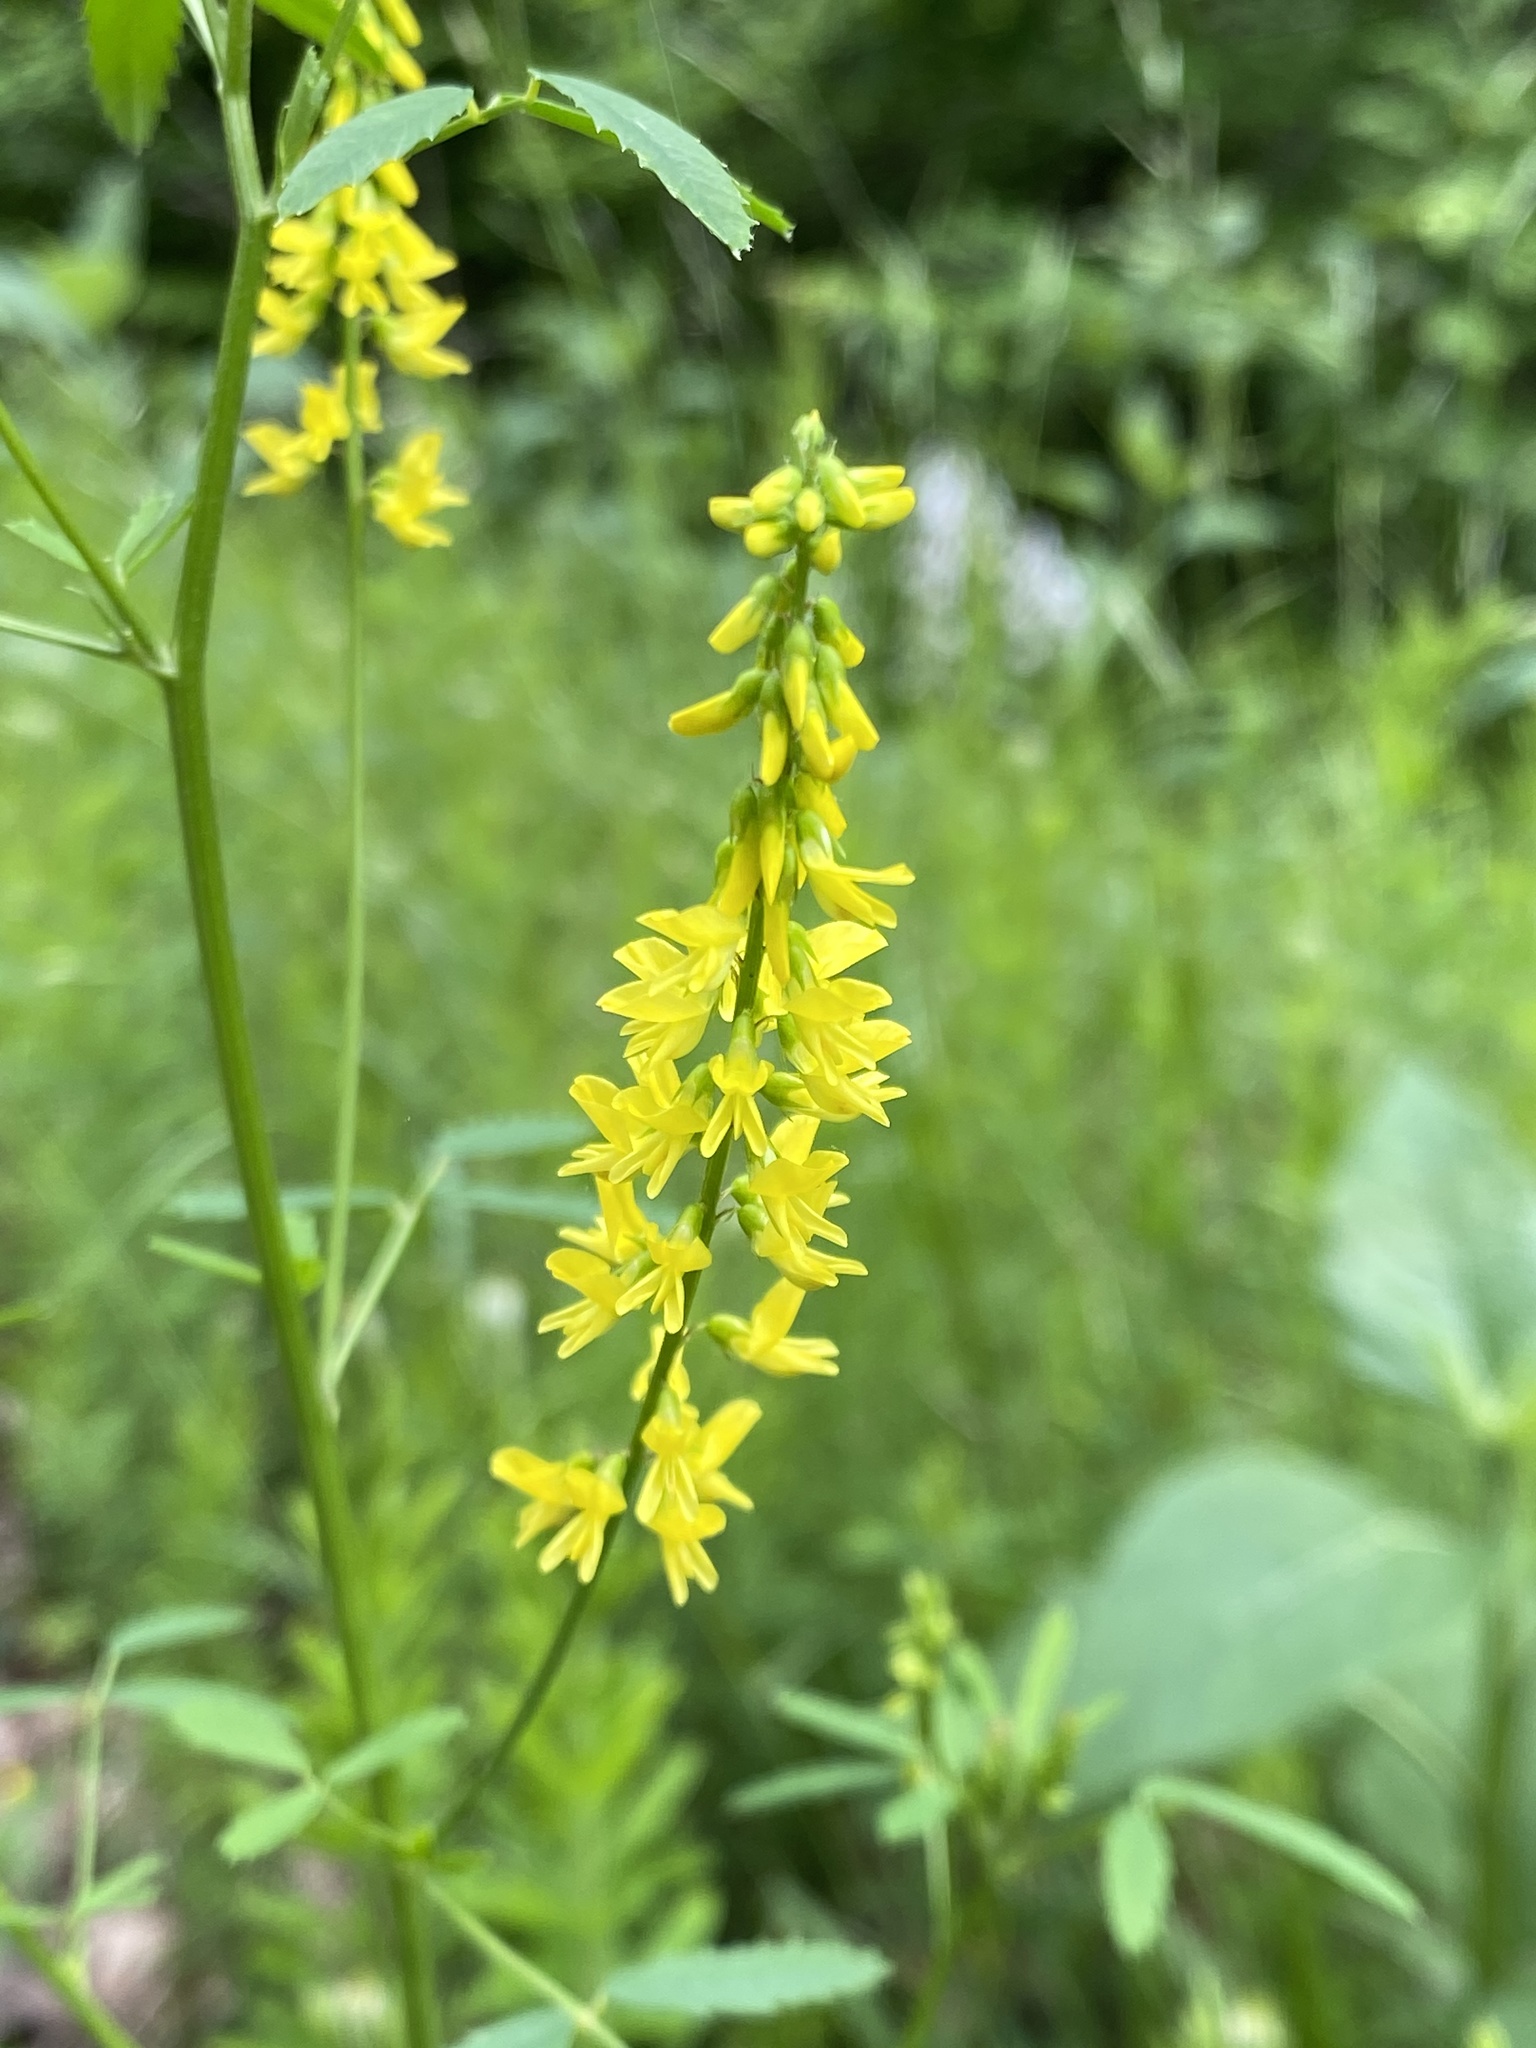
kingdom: Plantae
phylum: Tracheophyta
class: Magnoliopsida
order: Fabales
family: Fabaceae
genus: Melilotus
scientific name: Melilotus officinalis
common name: Sweetclover
